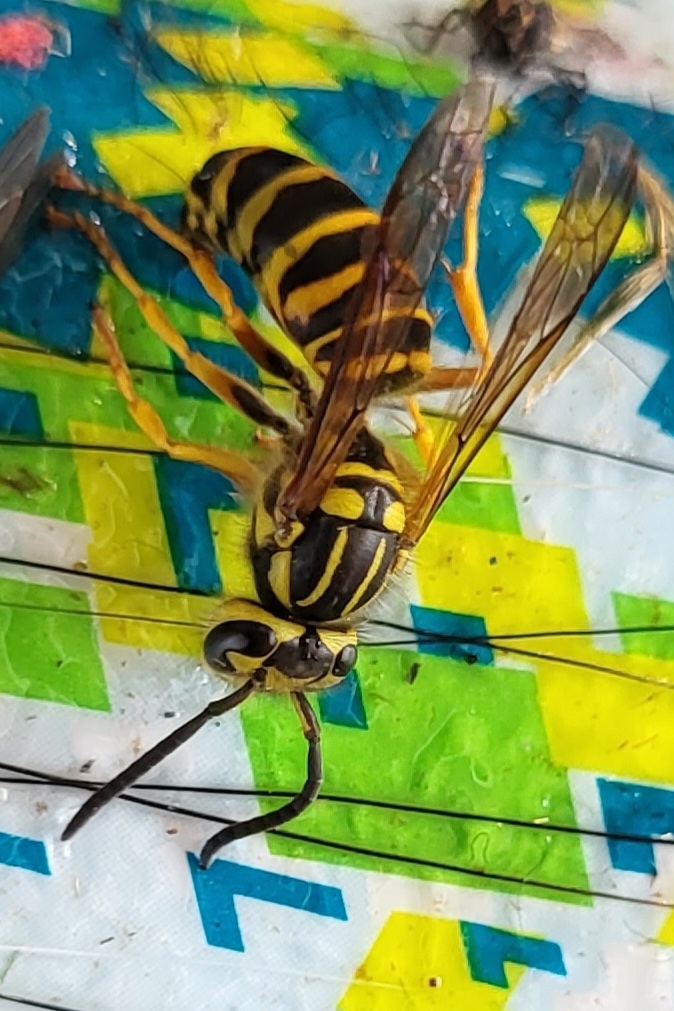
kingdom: Animalia
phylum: Arthropoda
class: Insecta
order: Hymenoptera
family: Vespidae
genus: Vespula
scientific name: Vespula squamosa
